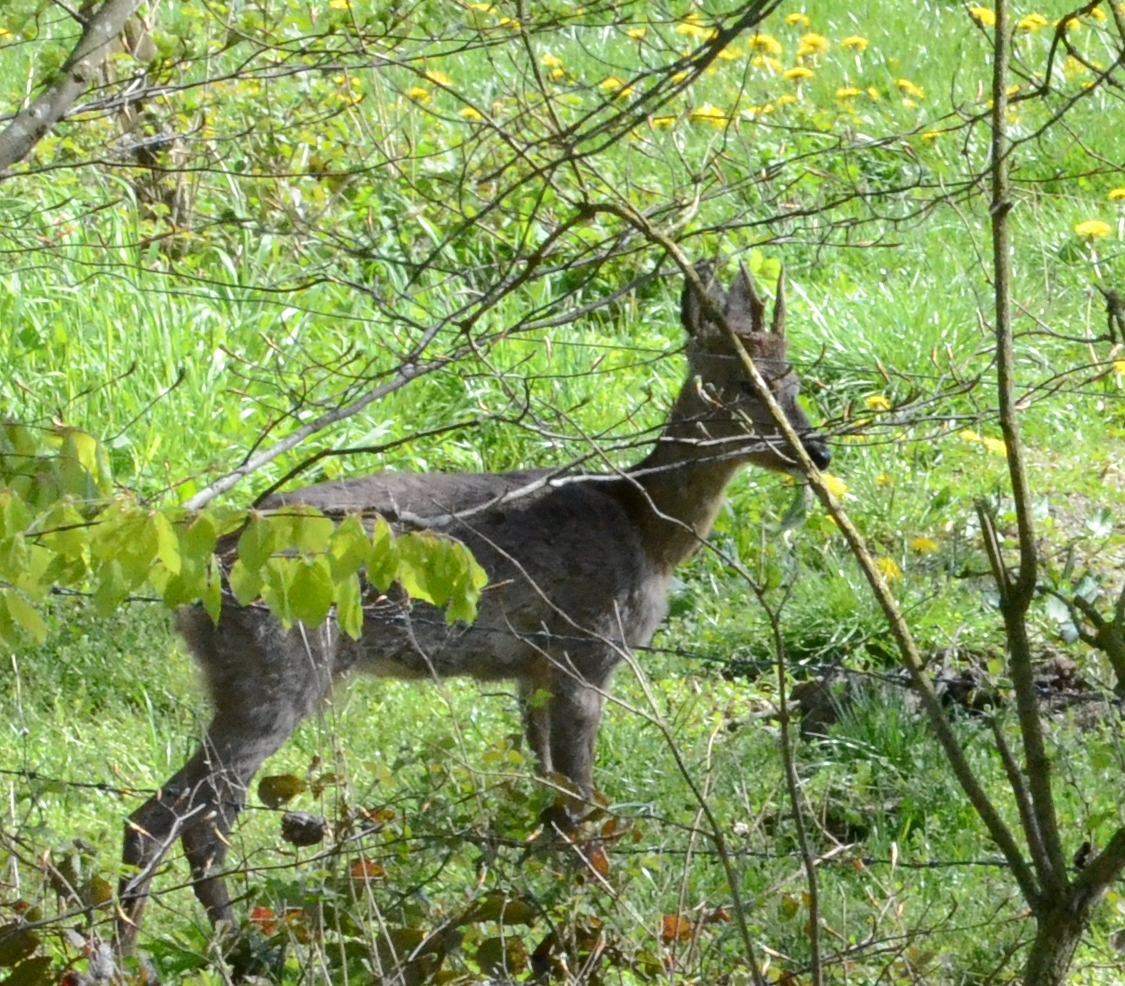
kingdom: Animalia
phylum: Chordata
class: Mammalia
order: Artiodactyla
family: Cervidae
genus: Capreolus
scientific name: Capreolus capreolus
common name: Western roe deer
